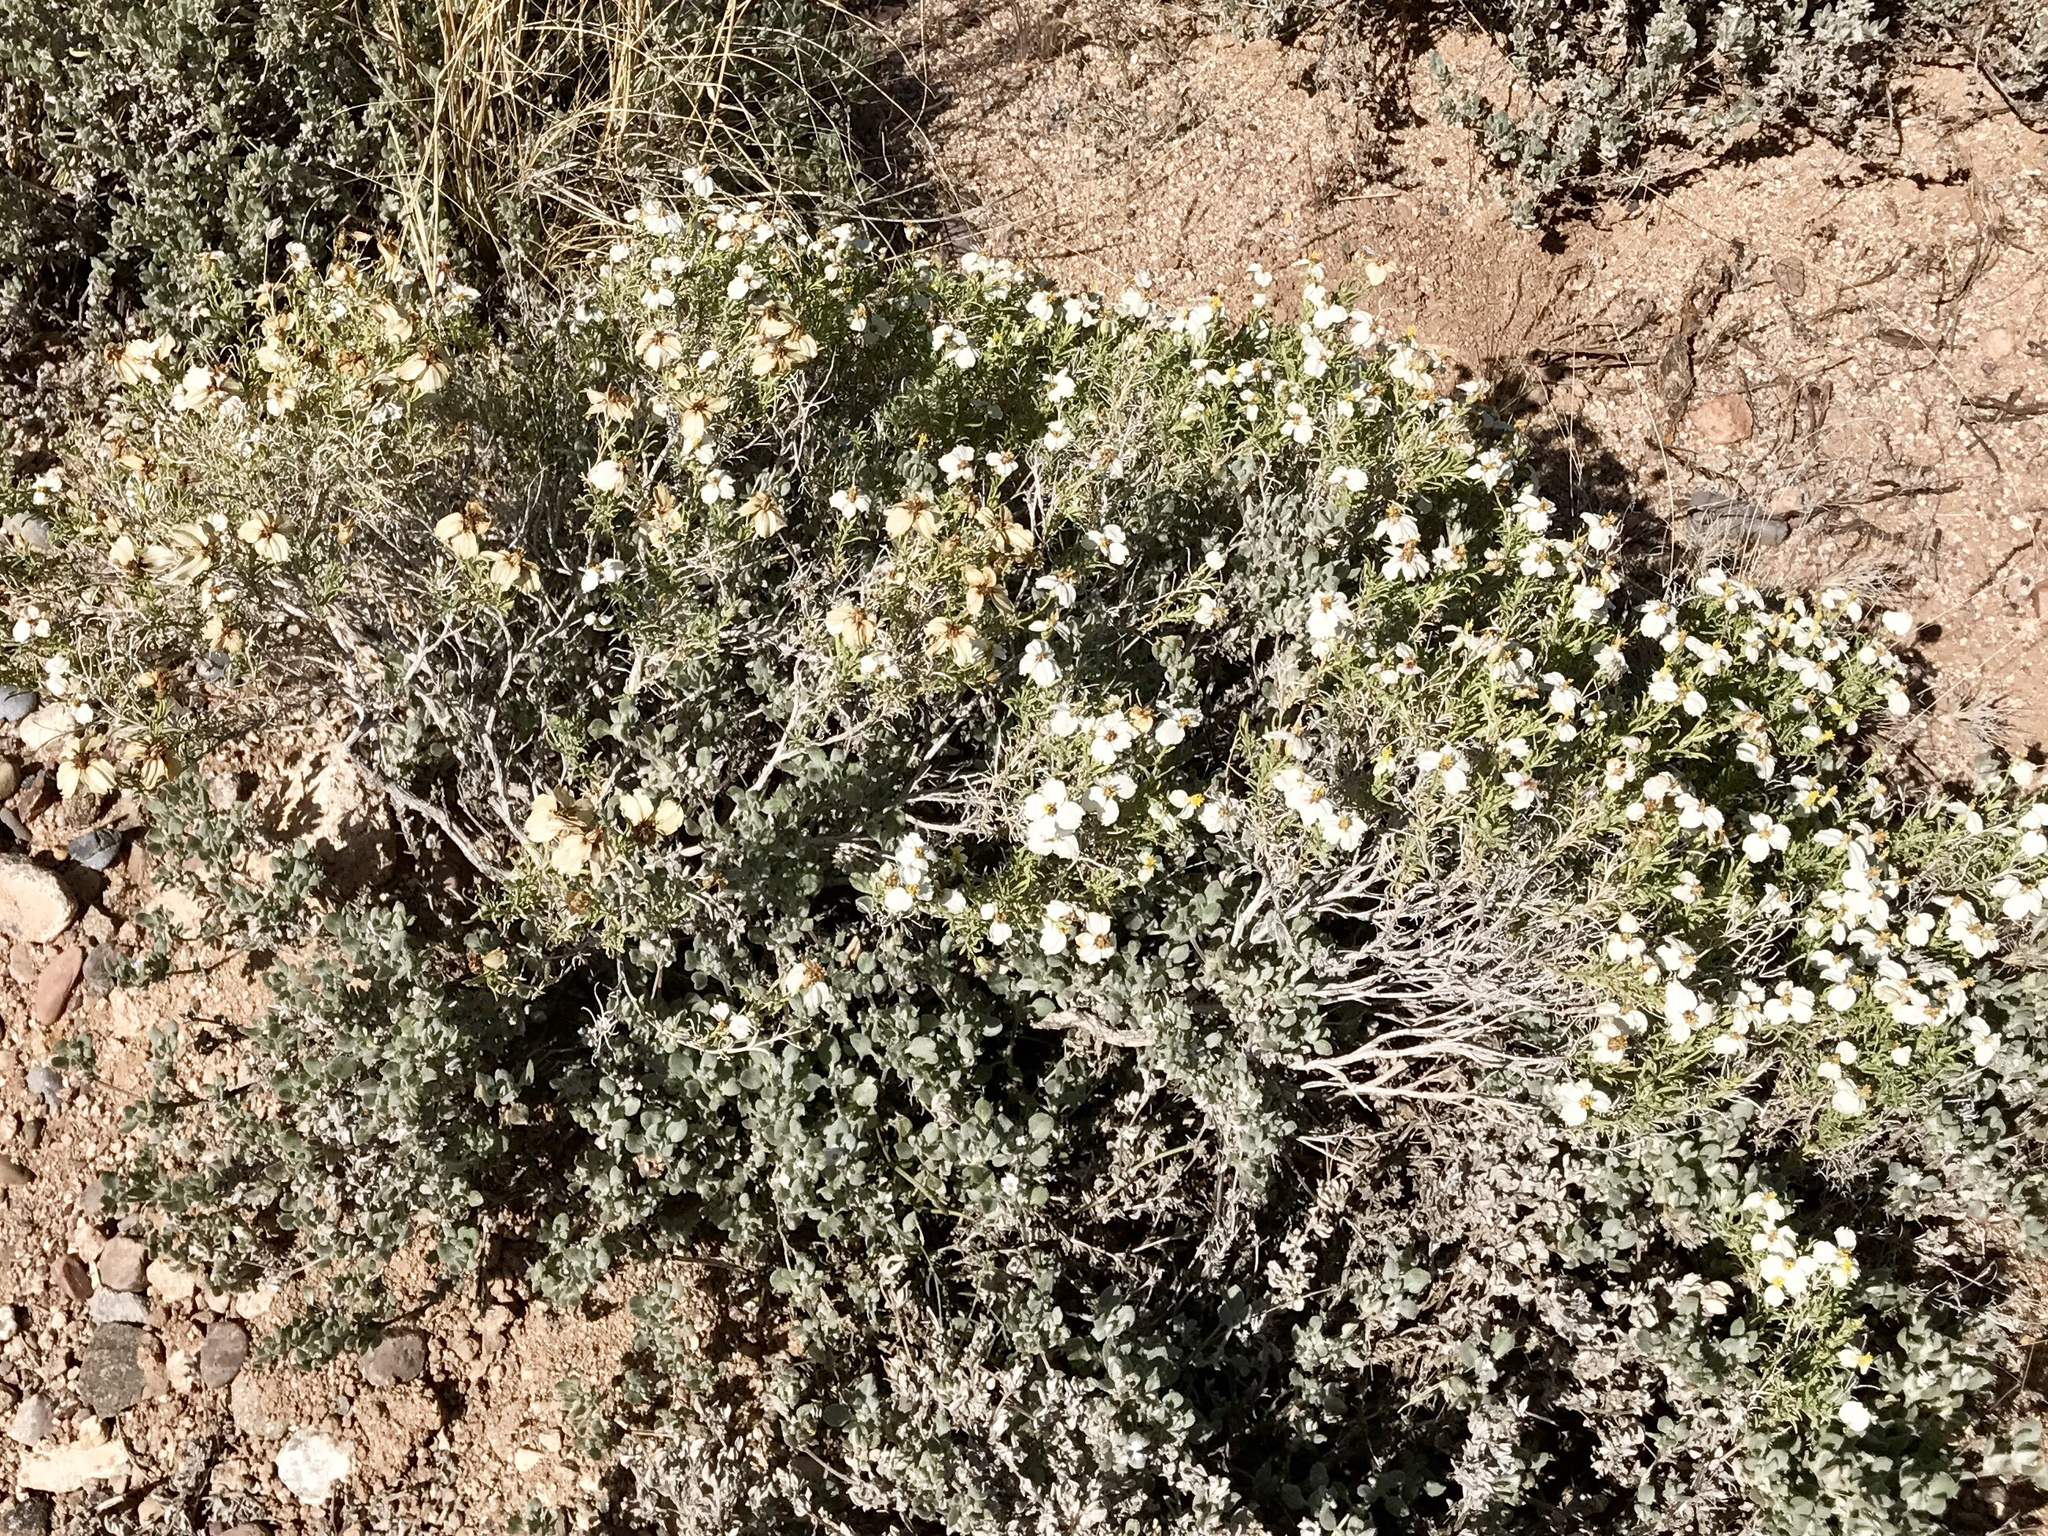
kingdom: Plantae
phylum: Tracheophyta
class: Magnoliopsida
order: Asterales
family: Asteraceae
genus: Zinnia
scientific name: Zinnia acerosa
